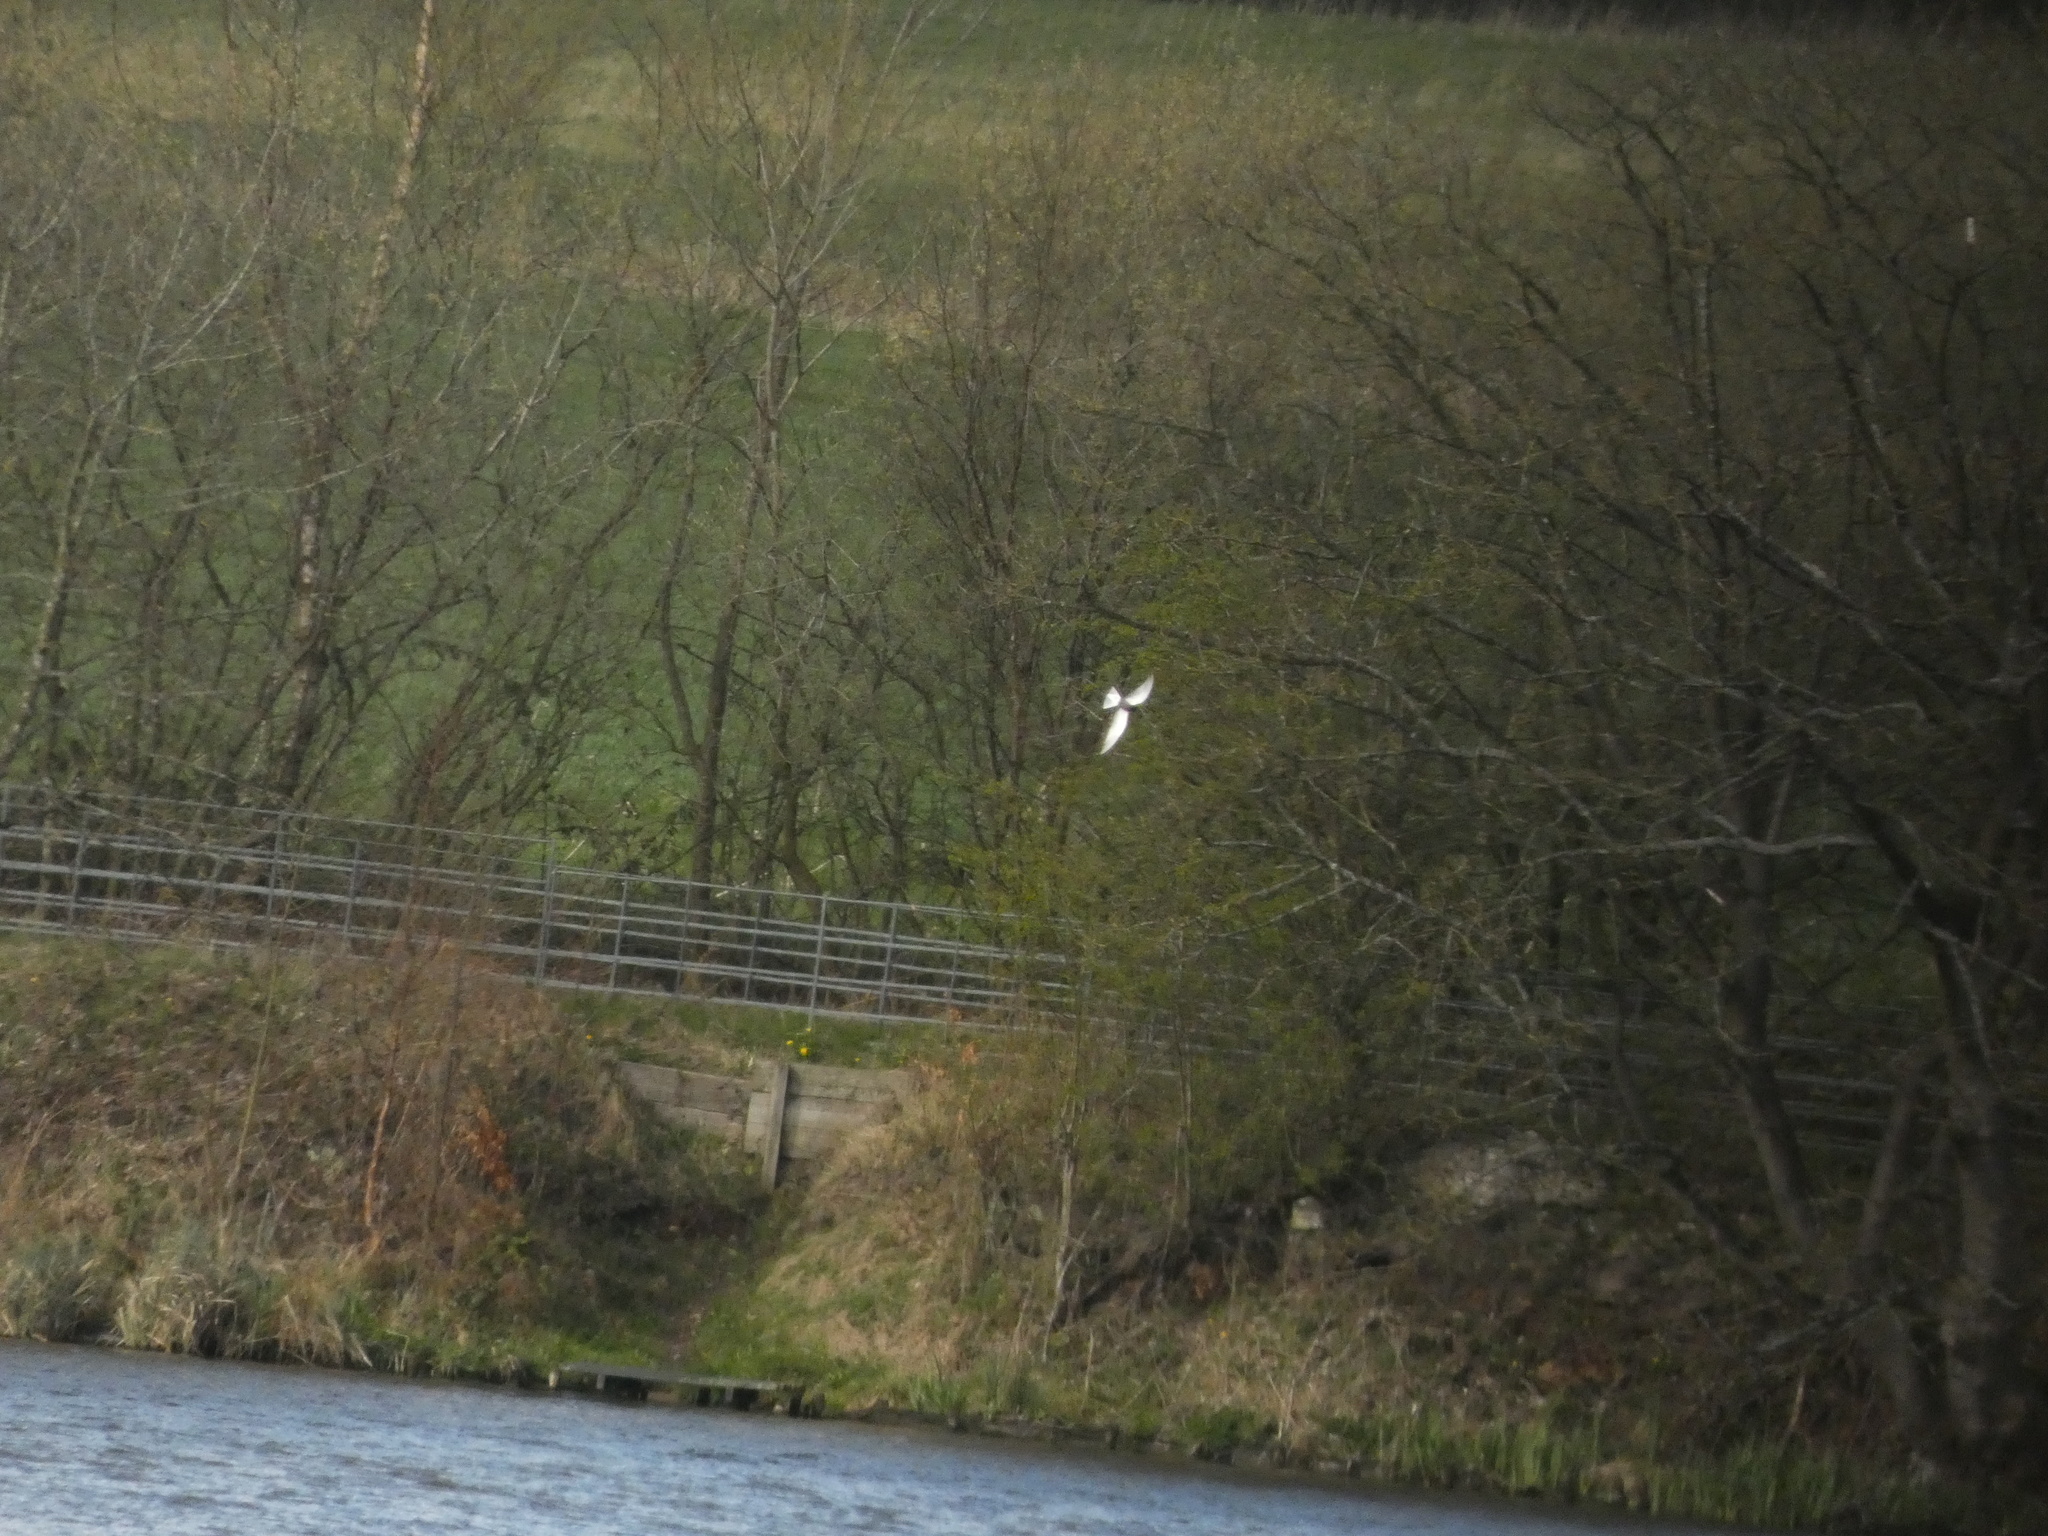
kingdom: Animalia
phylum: Chordata
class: Aves
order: Charadriiformes
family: Laridae
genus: Chlidonias
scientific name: Chlidonias niger
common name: Black tern
